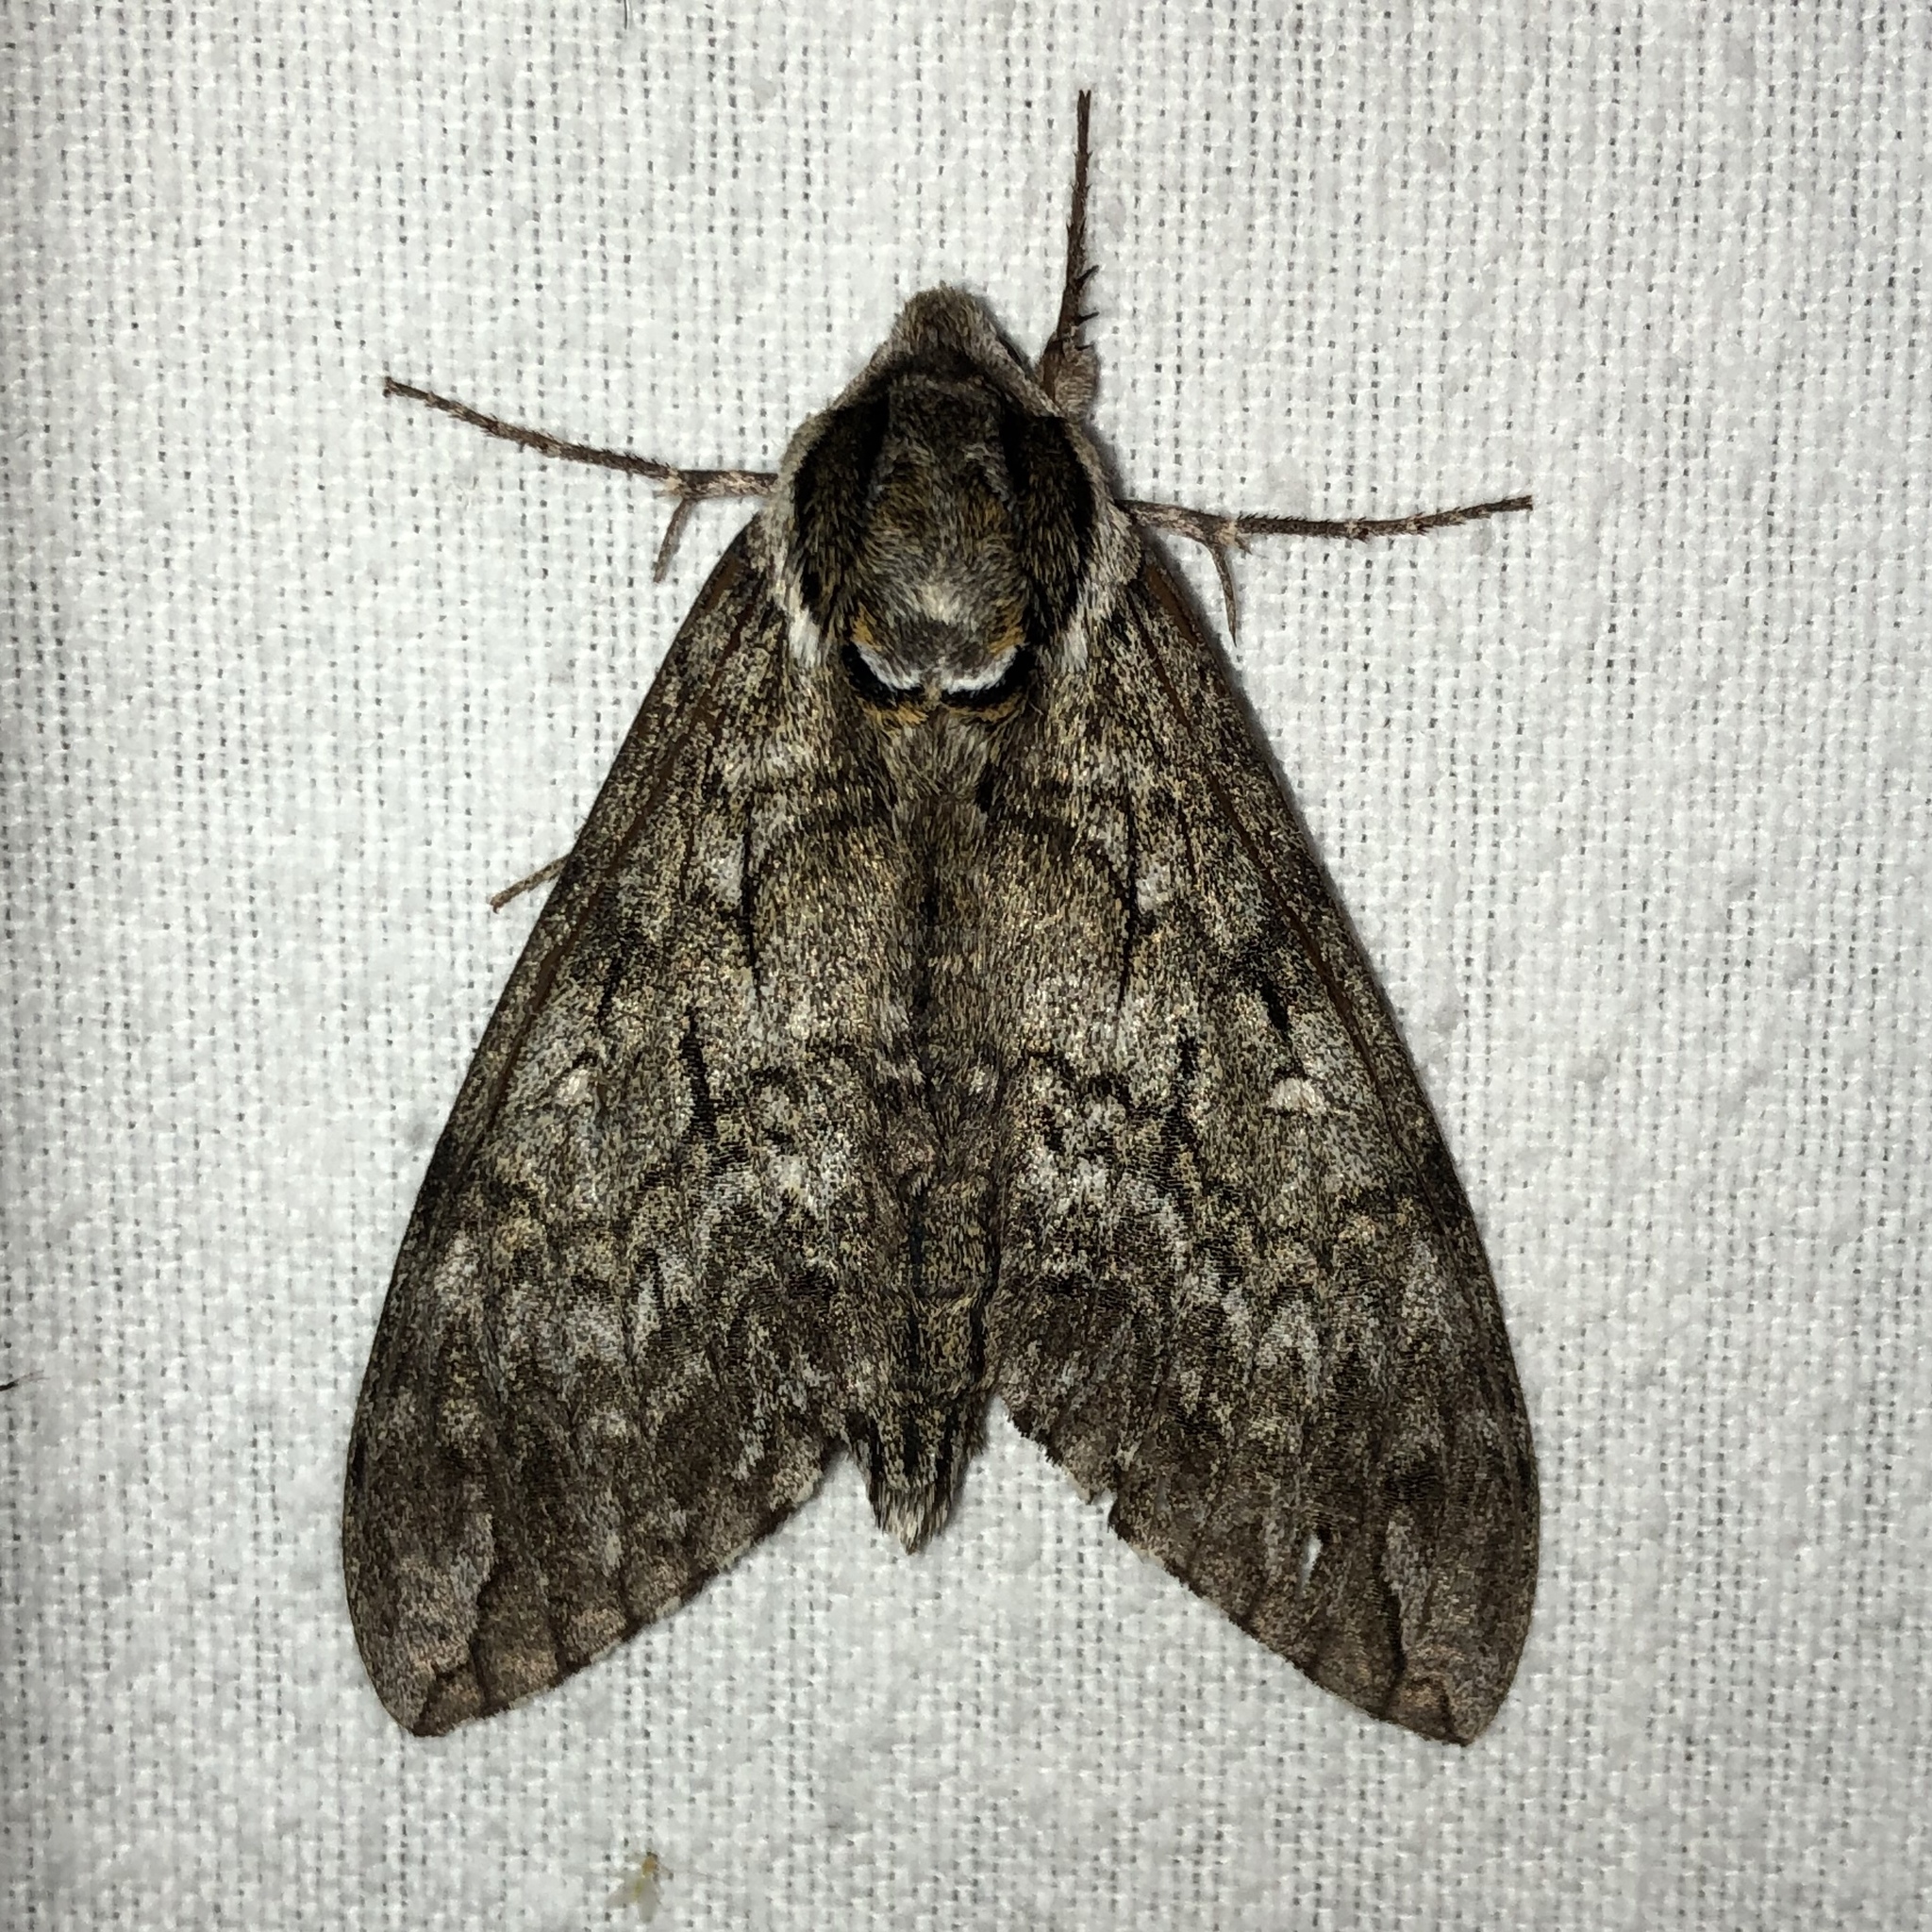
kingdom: Animalia
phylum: Arthropoda
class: Insecta
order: Lepidoptera
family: Sphingidae
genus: Ceratomia
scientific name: Ceratomia undulosa
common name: Waved sphinx
